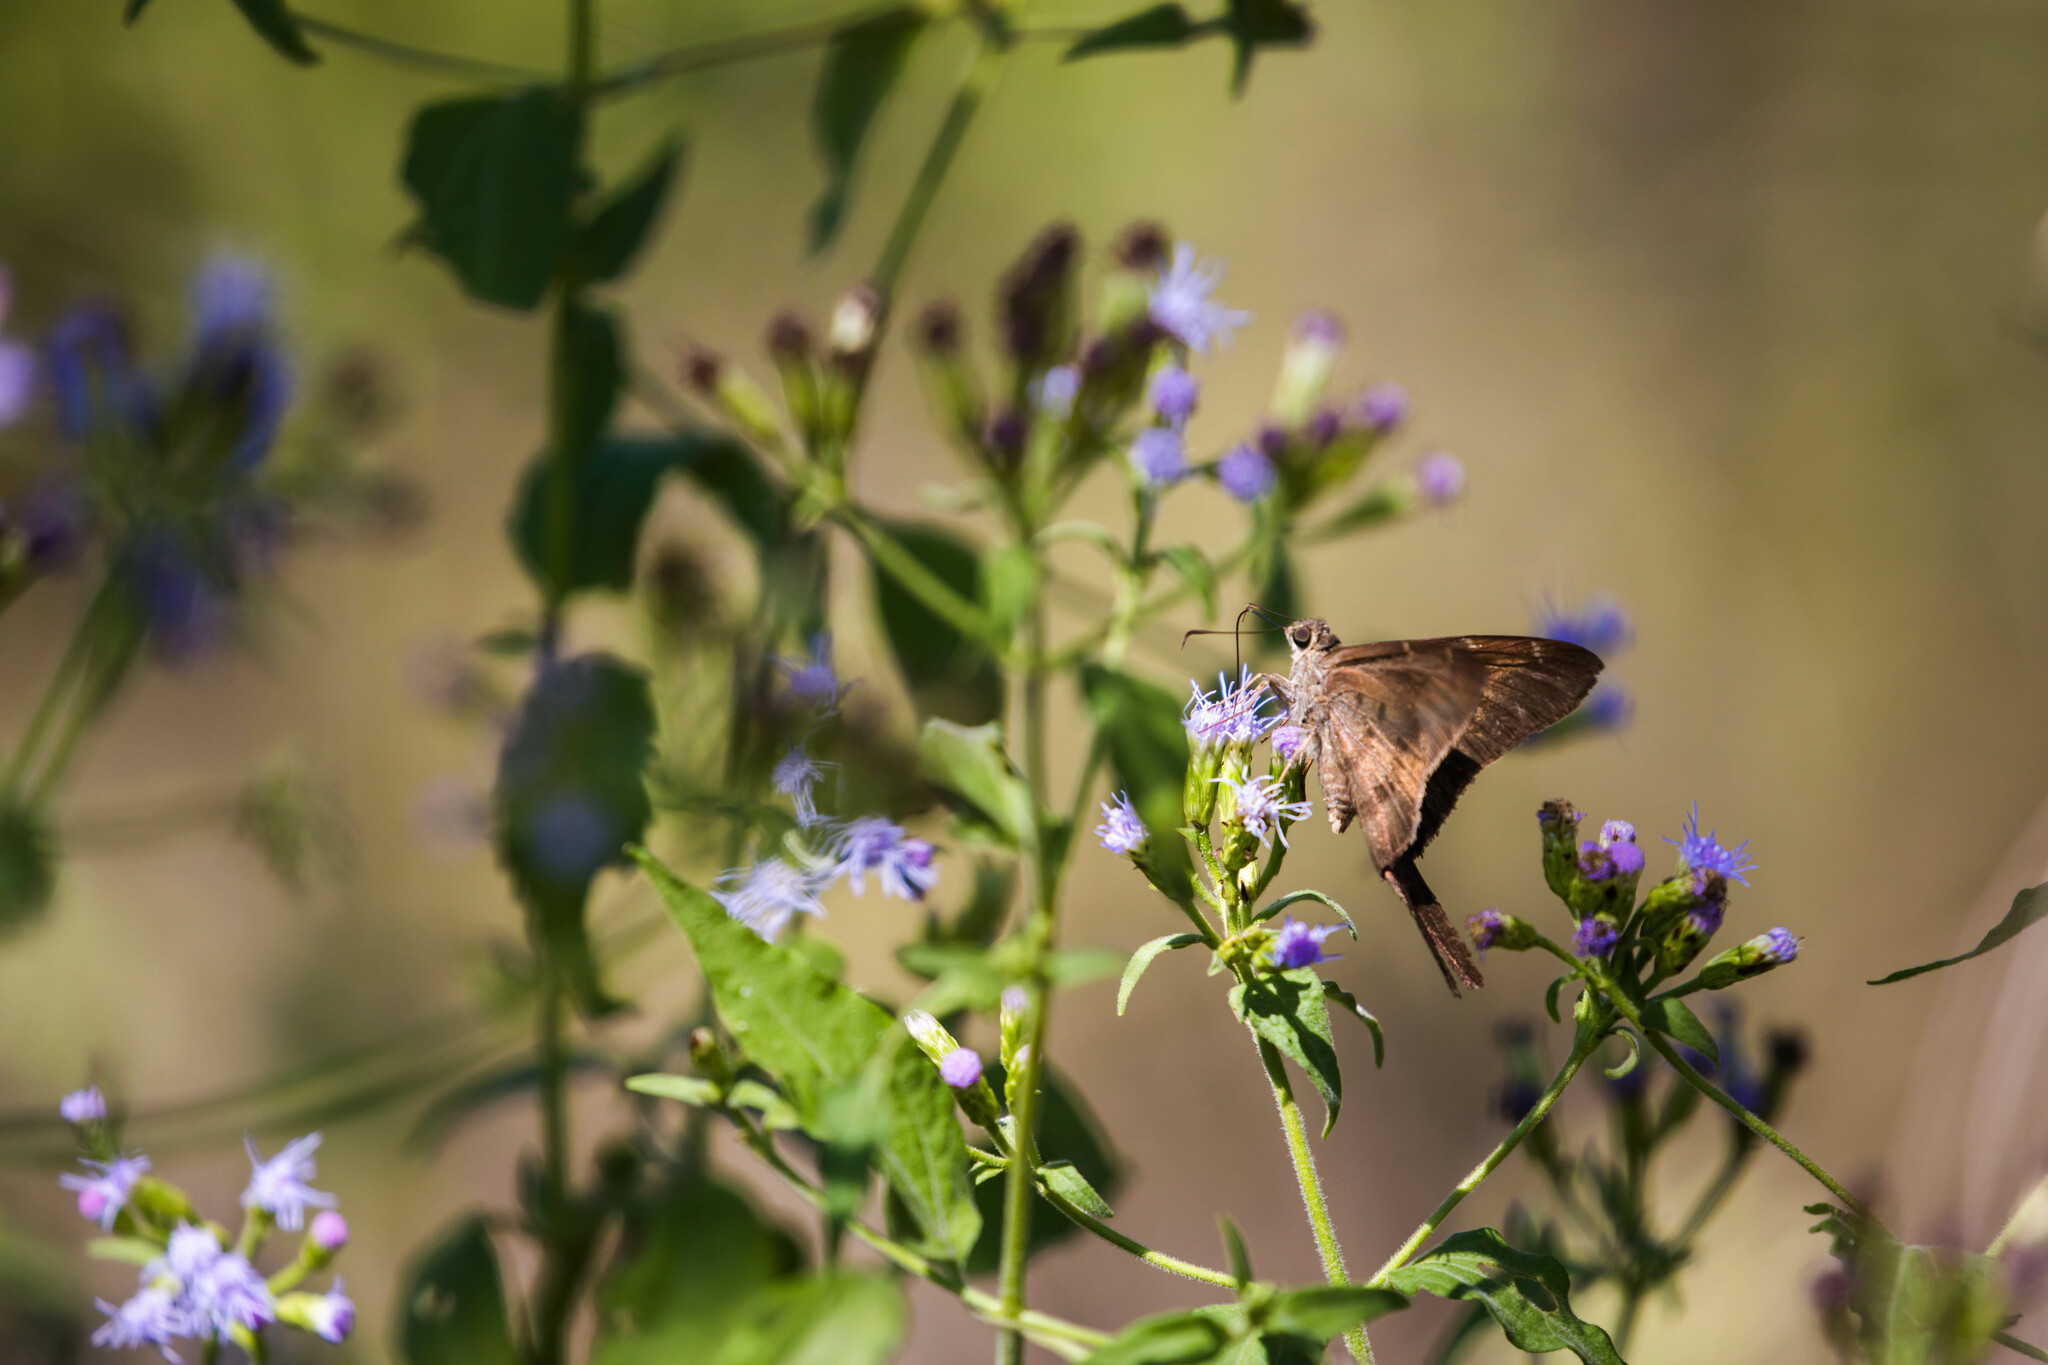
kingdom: Animalia
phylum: Arthropoda
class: Insecta
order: Lepidoptera
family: Hesperiidae
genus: Urbanus
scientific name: Urbanus procne
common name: Brown longtail
